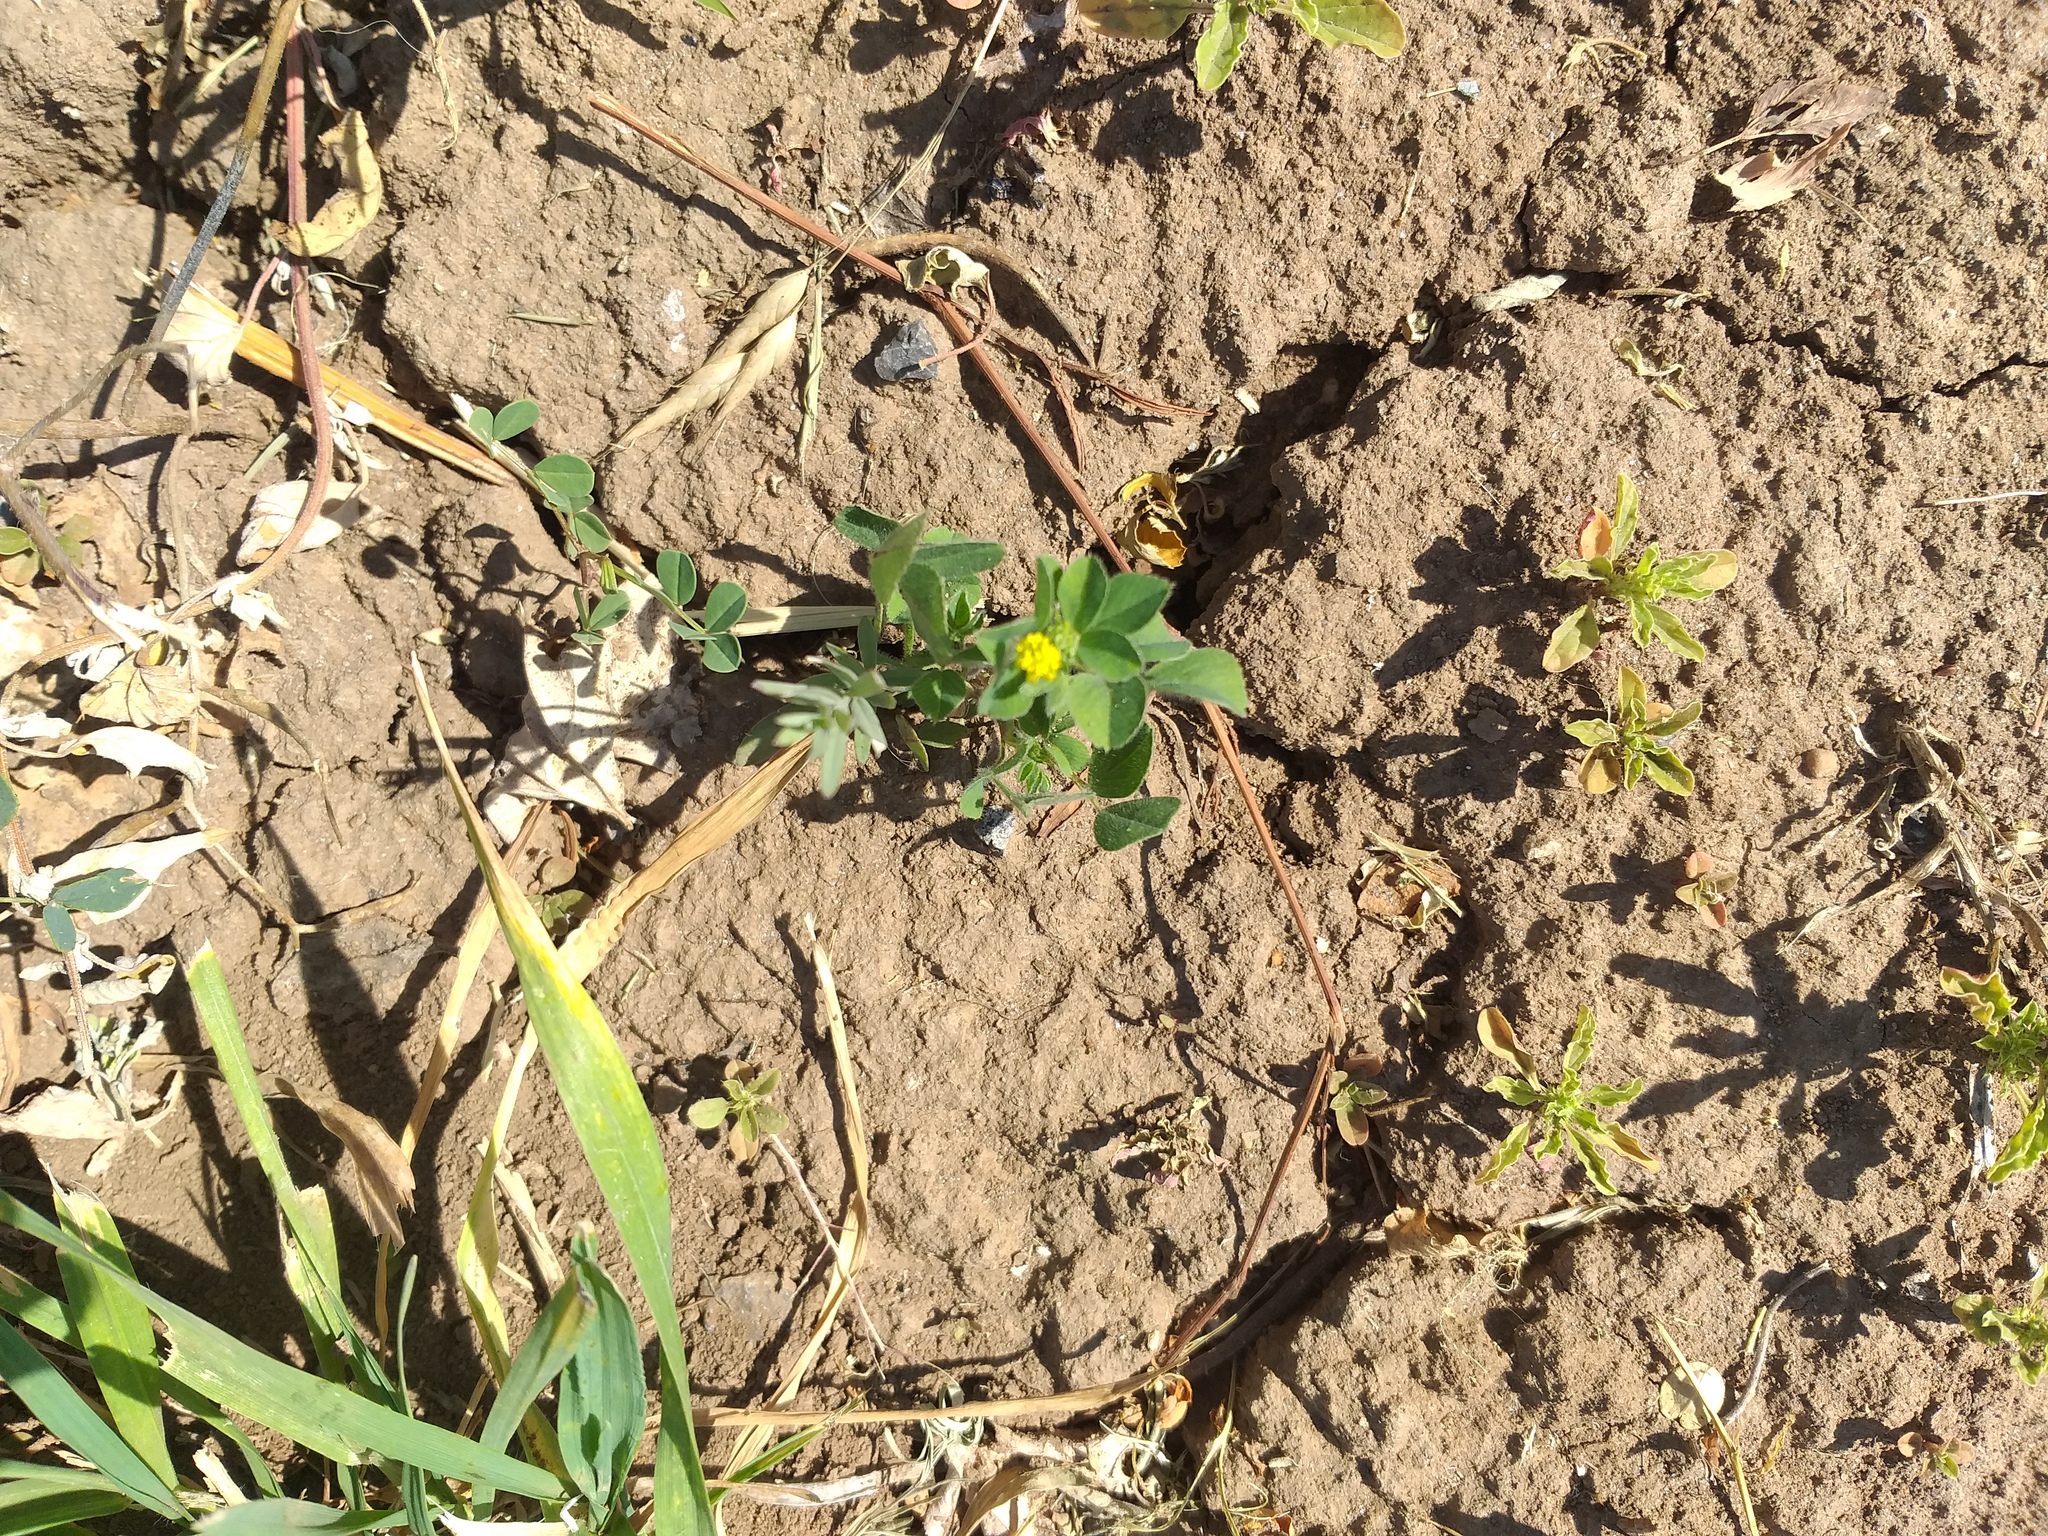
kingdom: Plantae
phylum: Tracheophyta
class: Magnoliopsida
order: Fabales
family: Fabaceae
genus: Medicago
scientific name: Medicago lupulina
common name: Black medick
